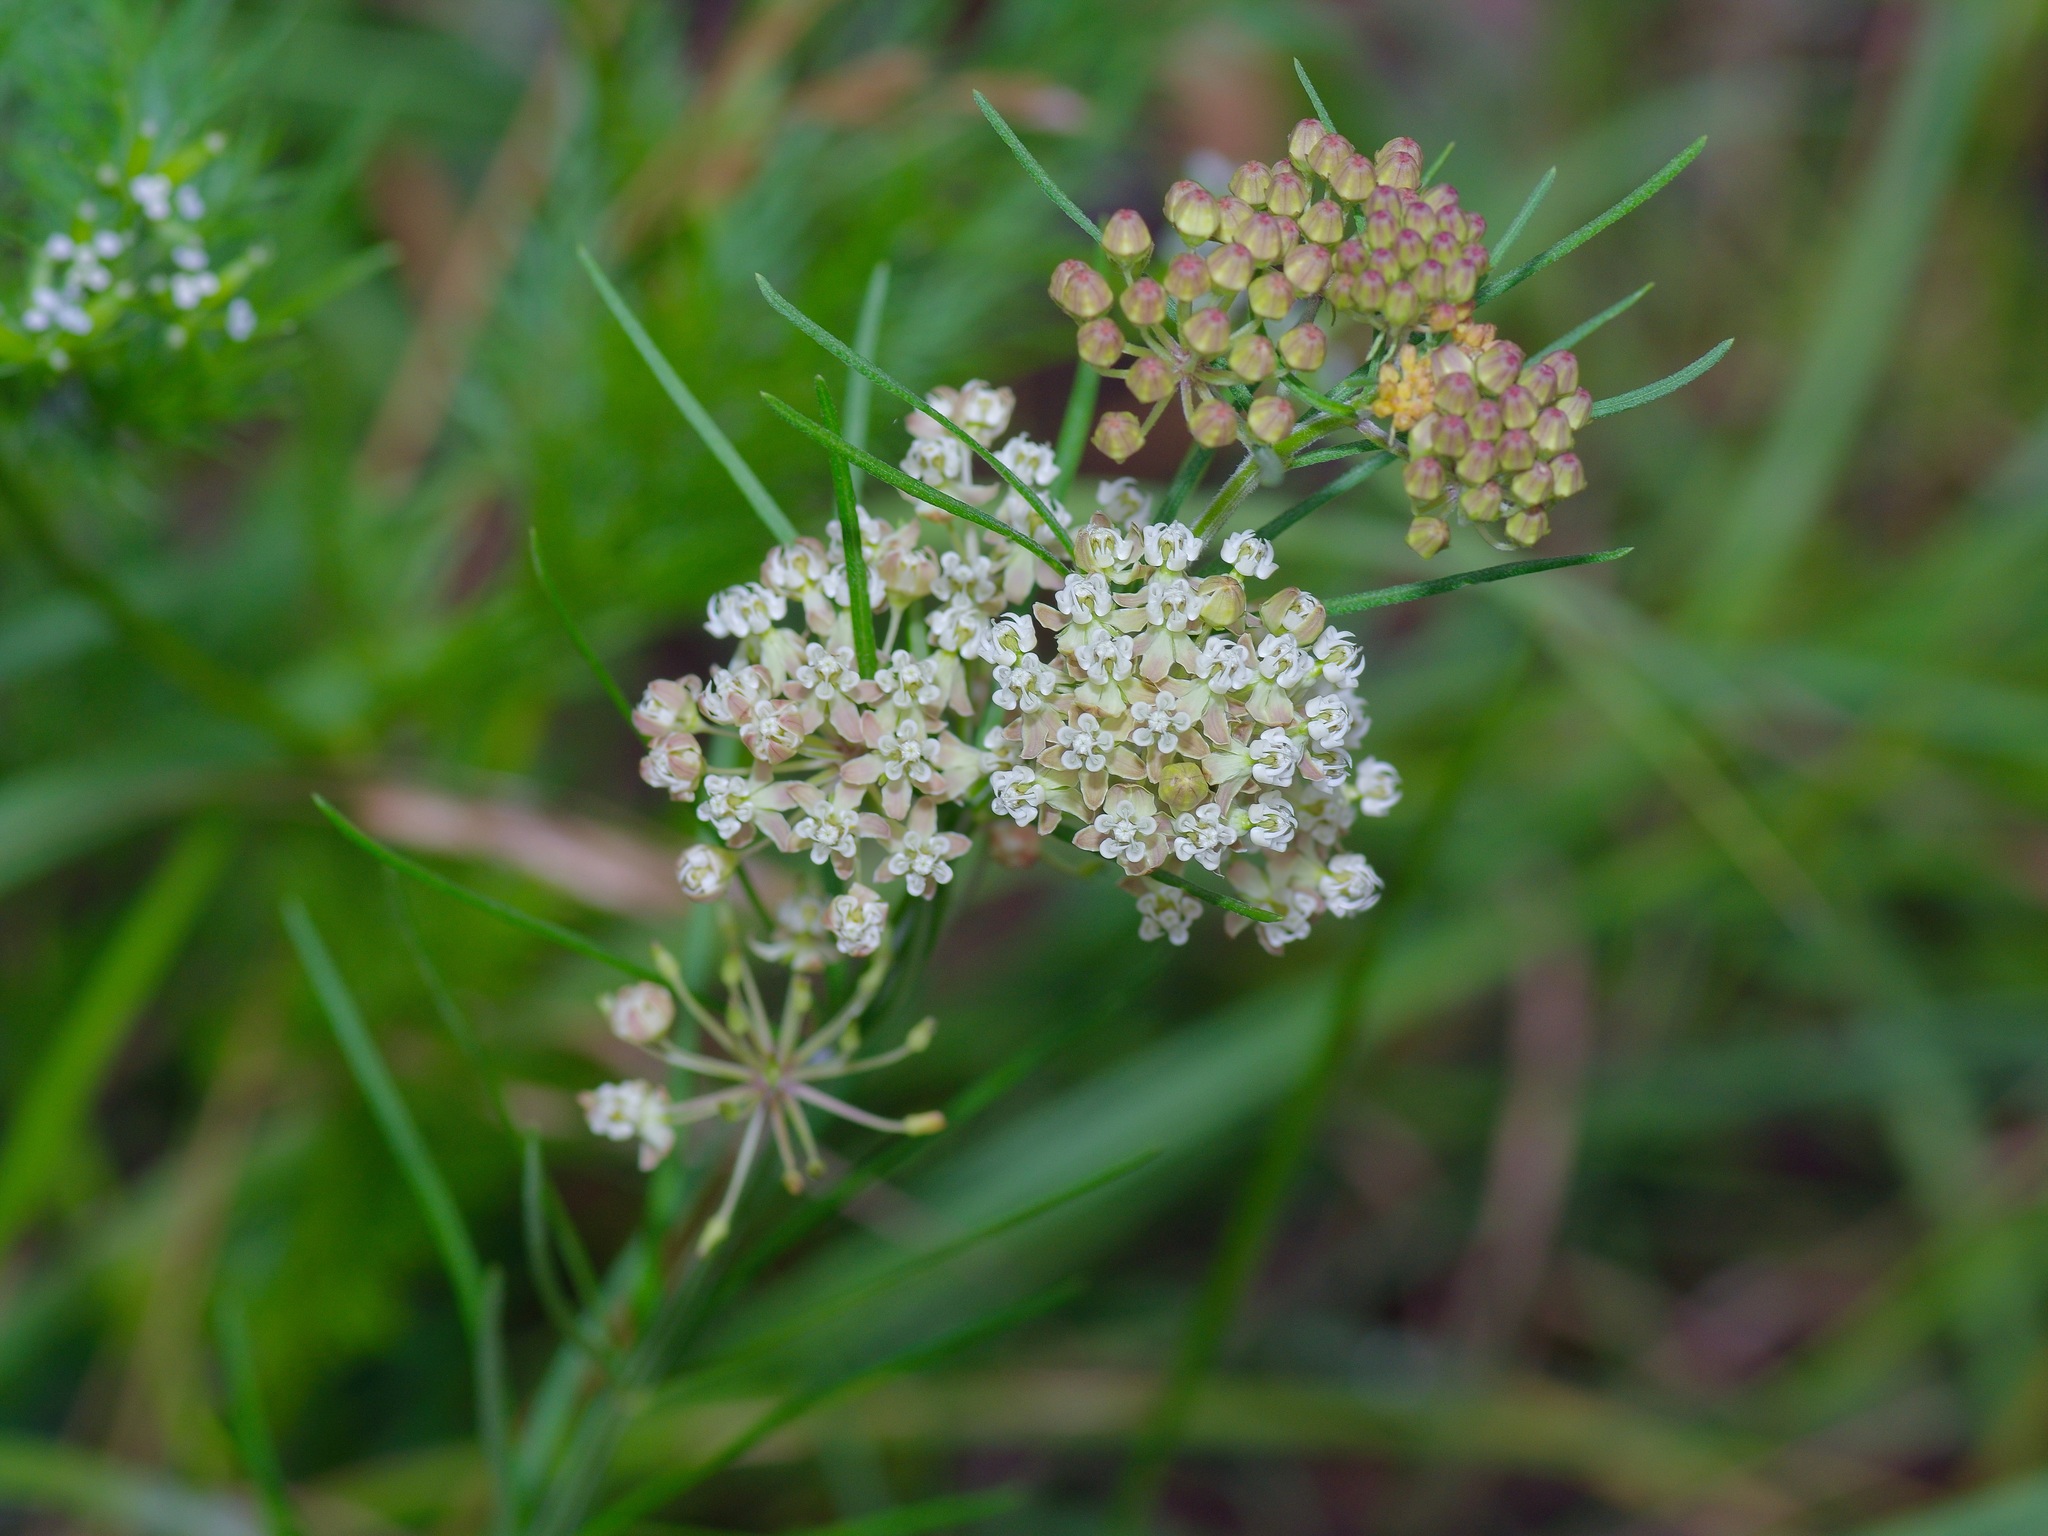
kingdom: Plantae
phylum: Tracheophyta
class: Magnoliopsida
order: Gentianales
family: Apocynaceae
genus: Asclepias
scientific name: Asclepias verticillata
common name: Eastern whorled milkweed
